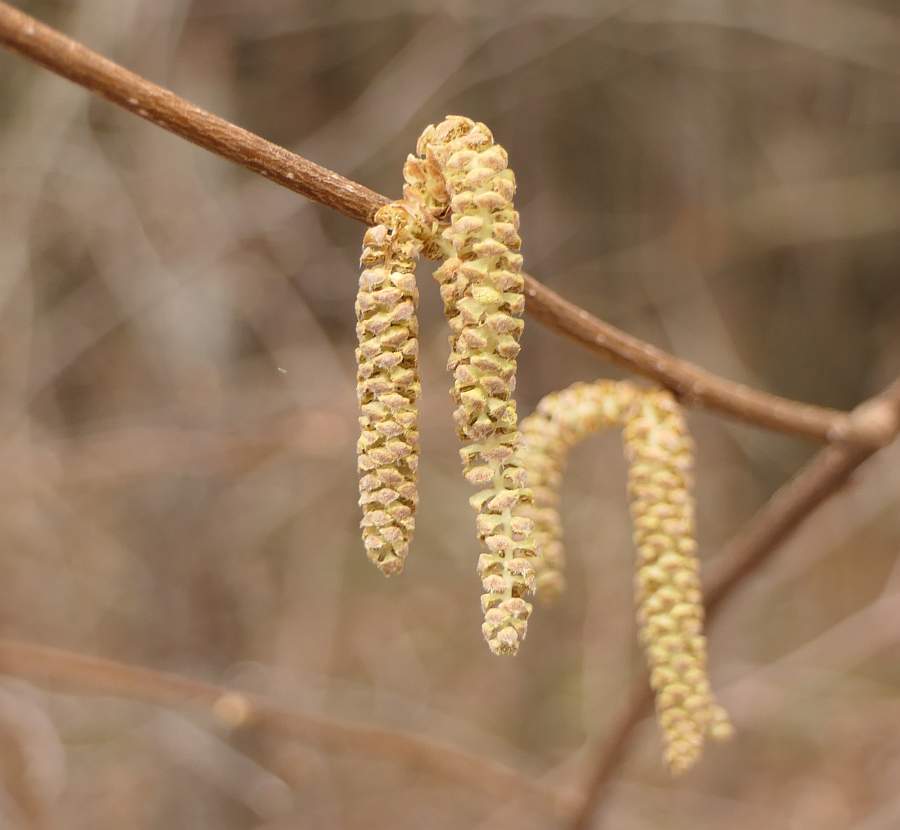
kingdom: Plantae
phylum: Tracheophyta
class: Magnoliopsida
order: Fagales
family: Betulaceae
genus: Corylus
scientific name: Corylus cornuta
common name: Beaked hazel
